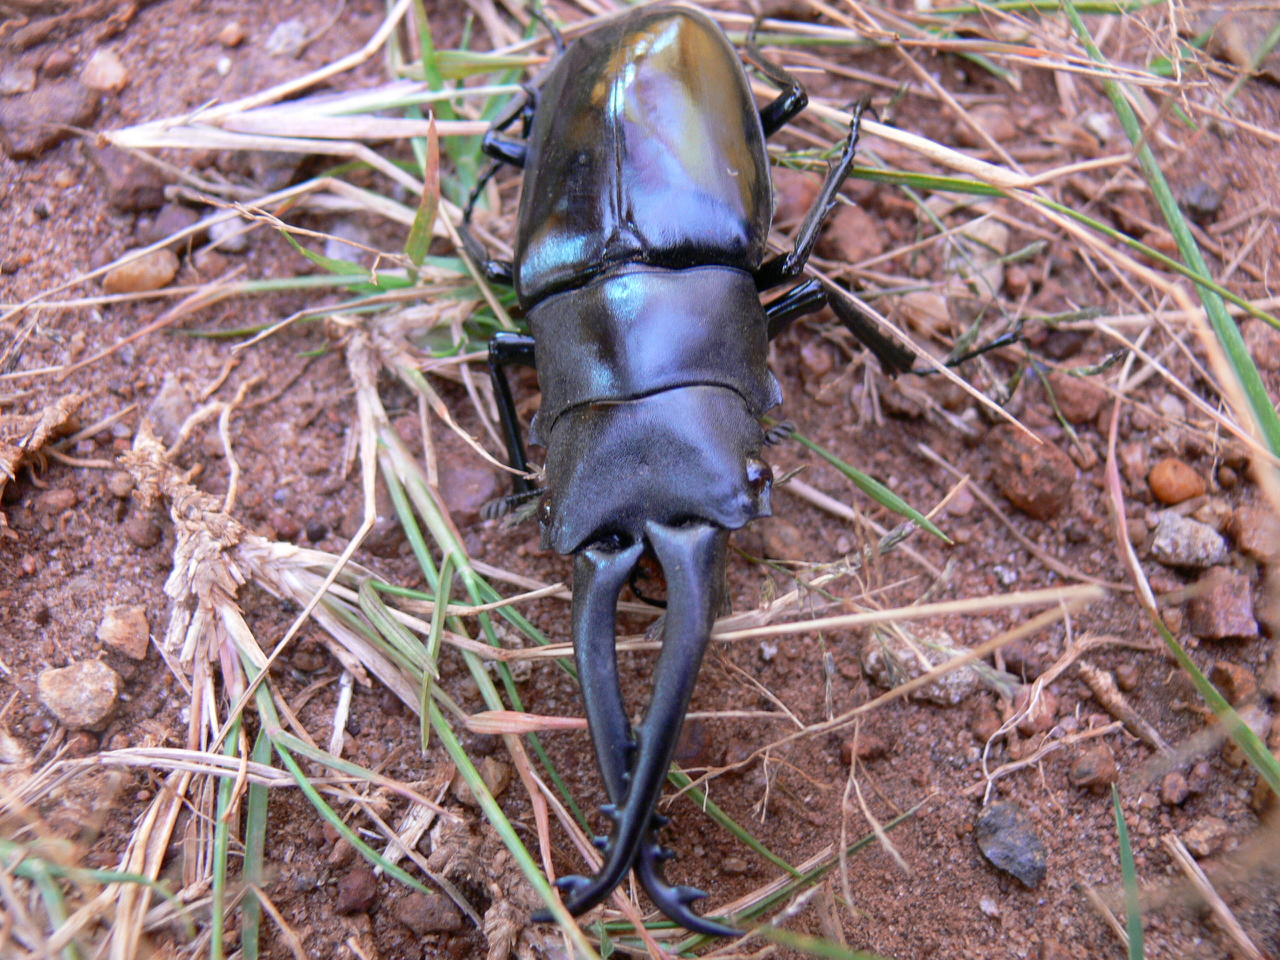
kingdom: Animalia
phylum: Arthropoda
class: Insecta
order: Coleoptera
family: Lucanidae
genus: Prosopocoilus
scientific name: Prosopocoilus girafa
